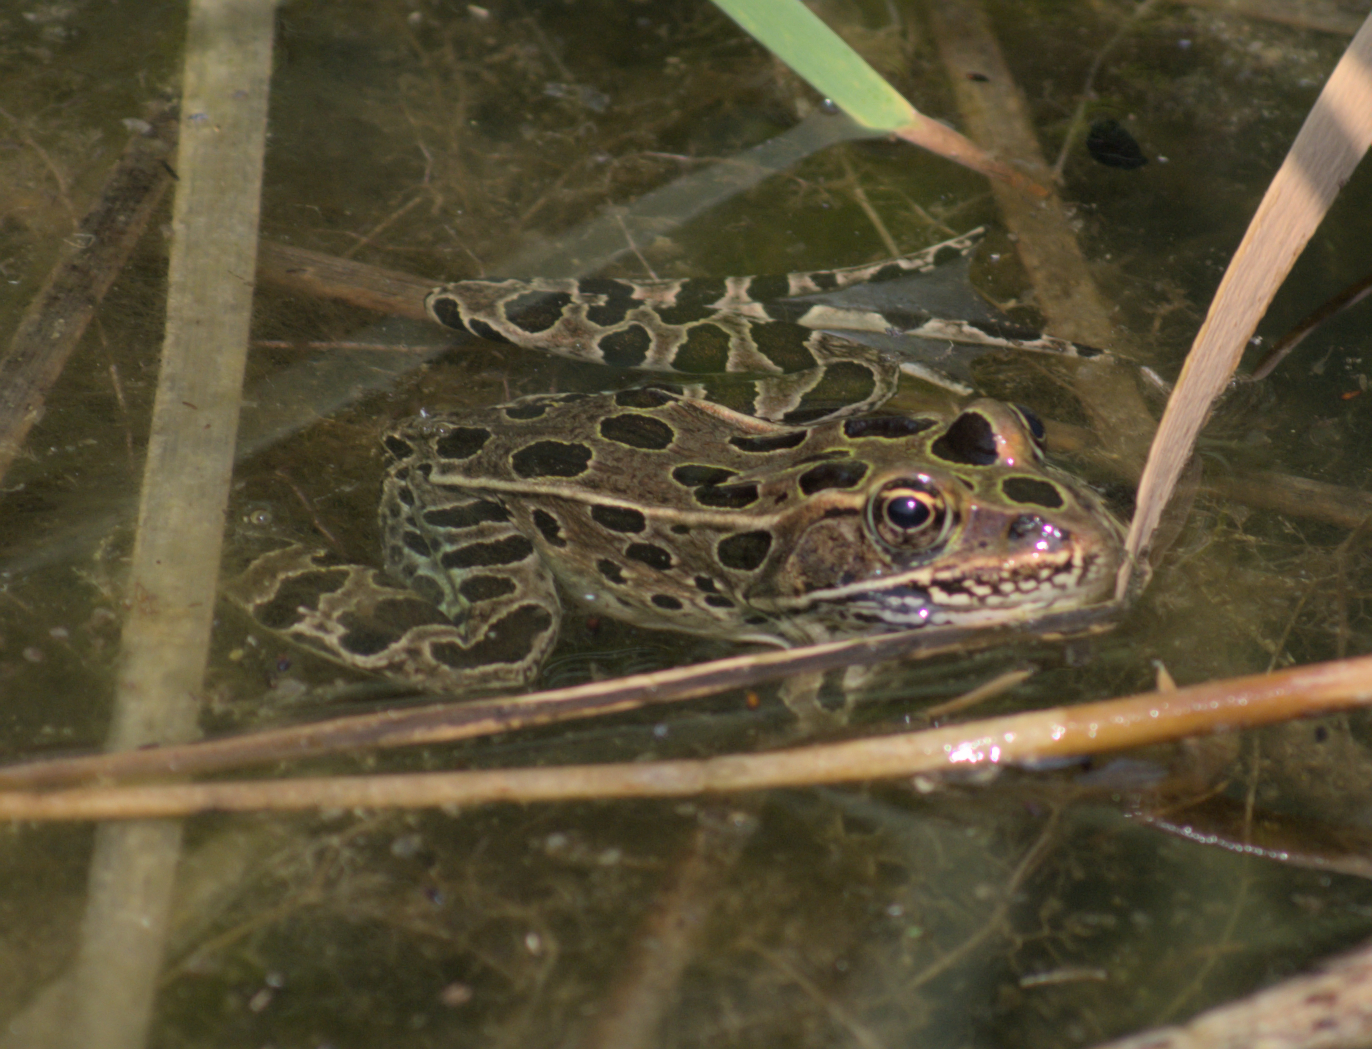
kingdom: Animalia
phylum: Chordata
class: Amphibia
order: Anura
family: Ranidae
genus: Lithobates
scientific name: Lithobates pipiens
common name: Northern leopard frog
